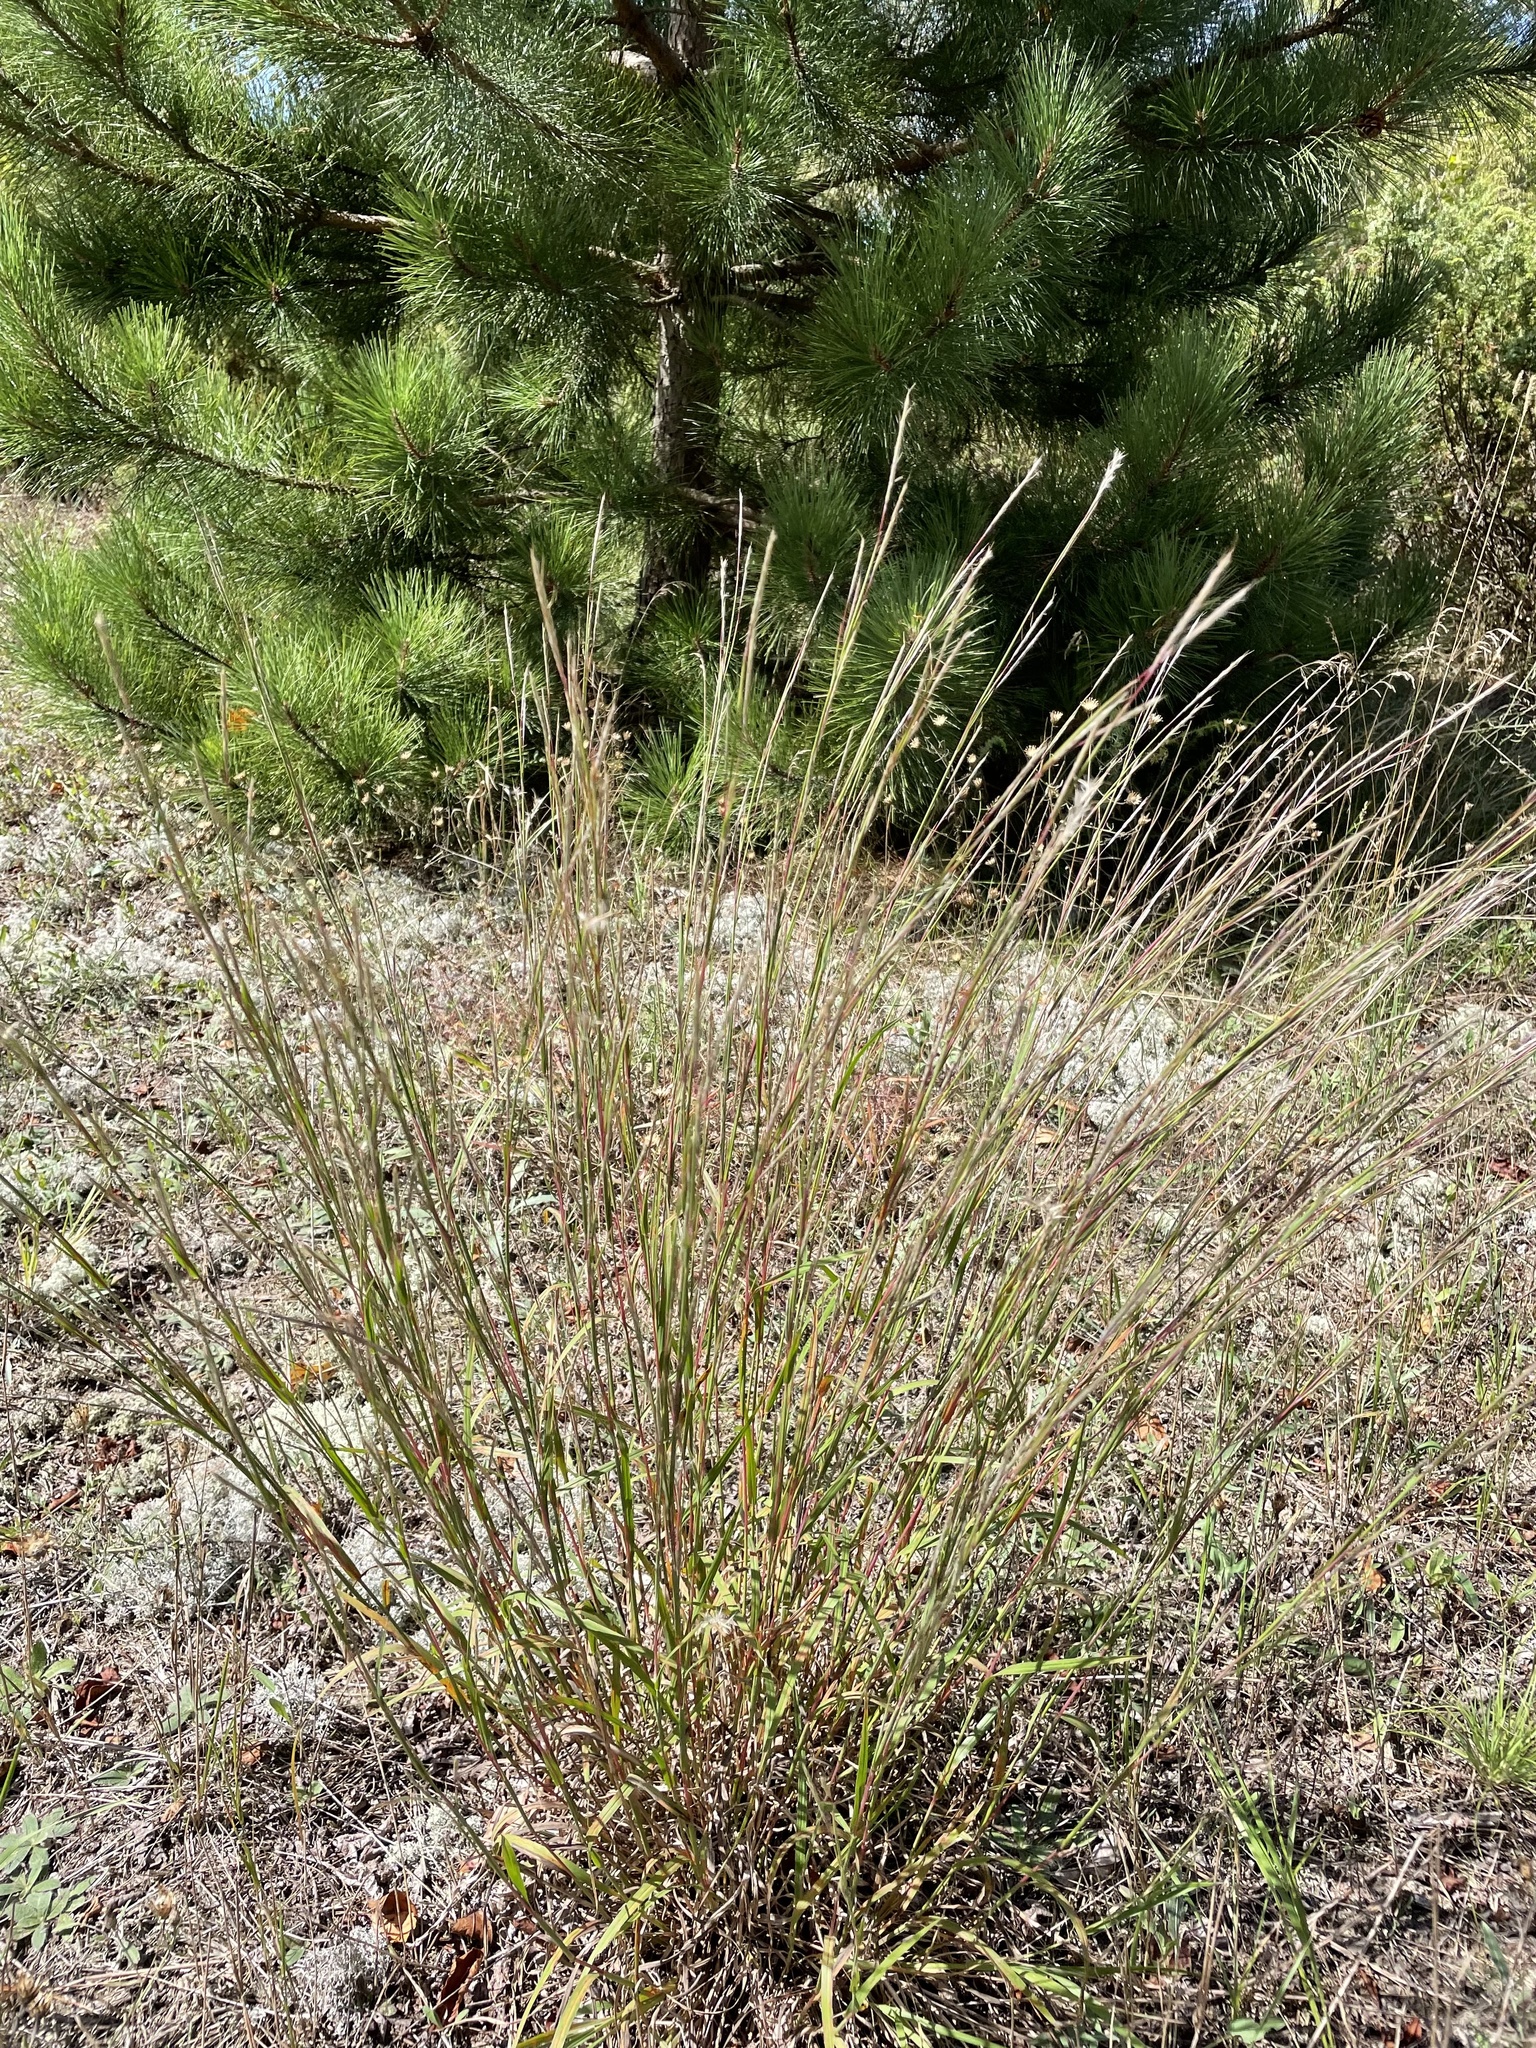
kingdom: Plantae
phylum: Tracheophyta
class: Liliopsida
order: Poales
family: Poaceae
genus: Schizachyrium
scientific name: Schizachyrium scoparium
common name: Little bluestem
